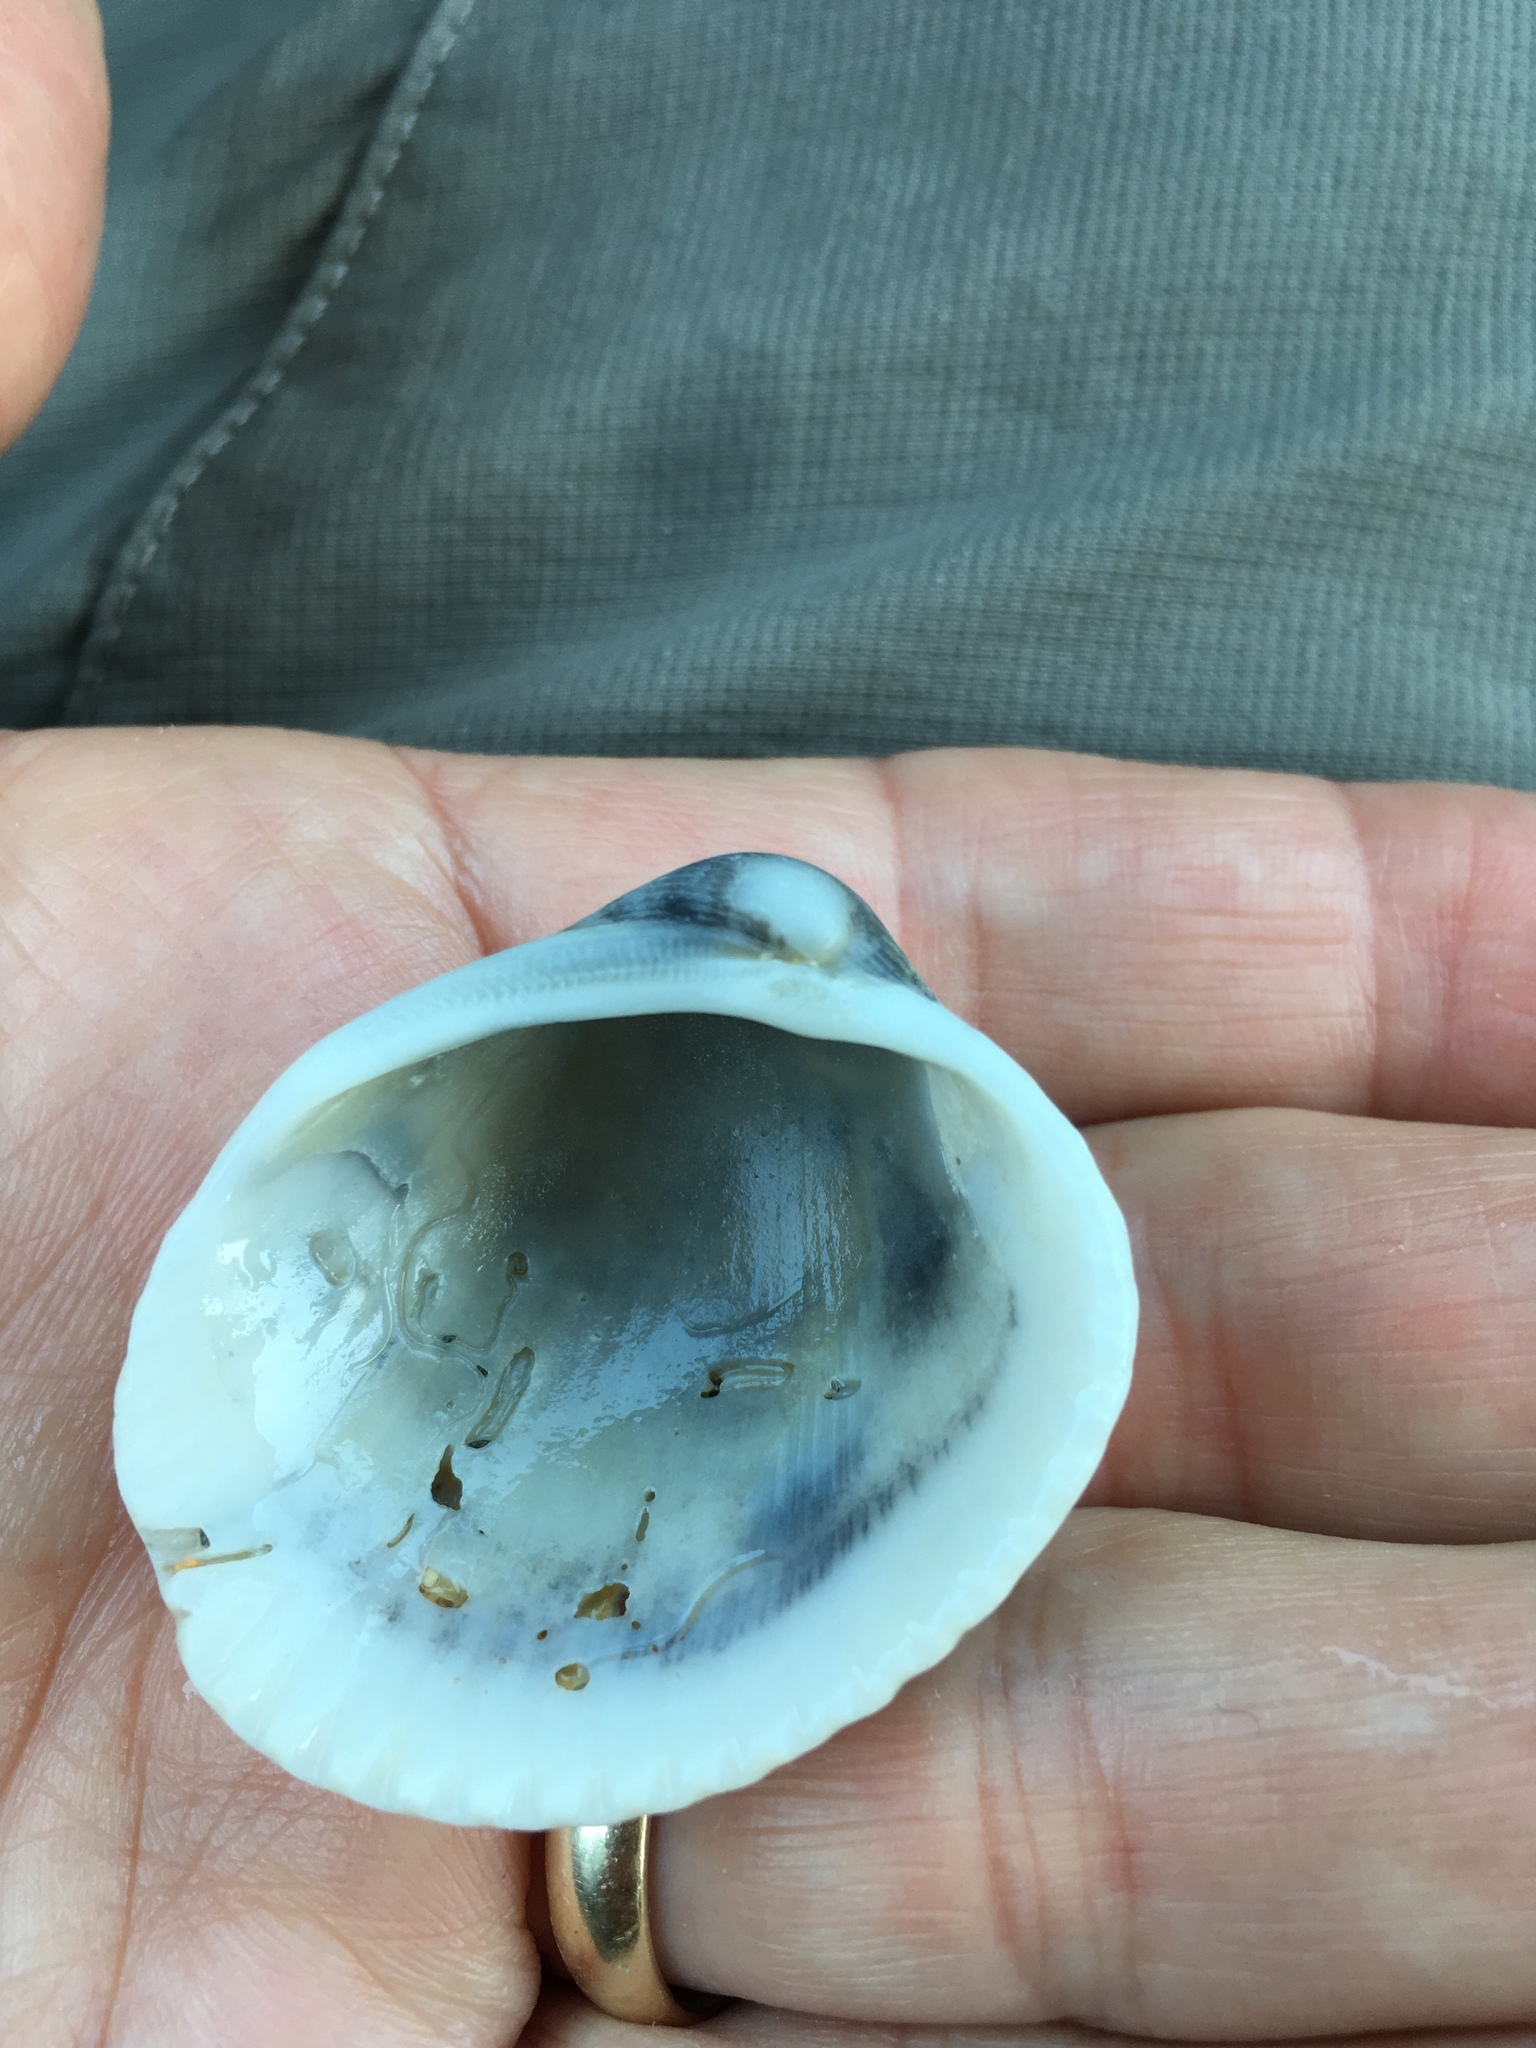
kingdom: Animalia
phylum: Mollusca
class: Bivalvia
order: Arcida
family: Arcidae
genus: Lunarca
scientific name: Lunarca ovalis
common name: Blood ark
